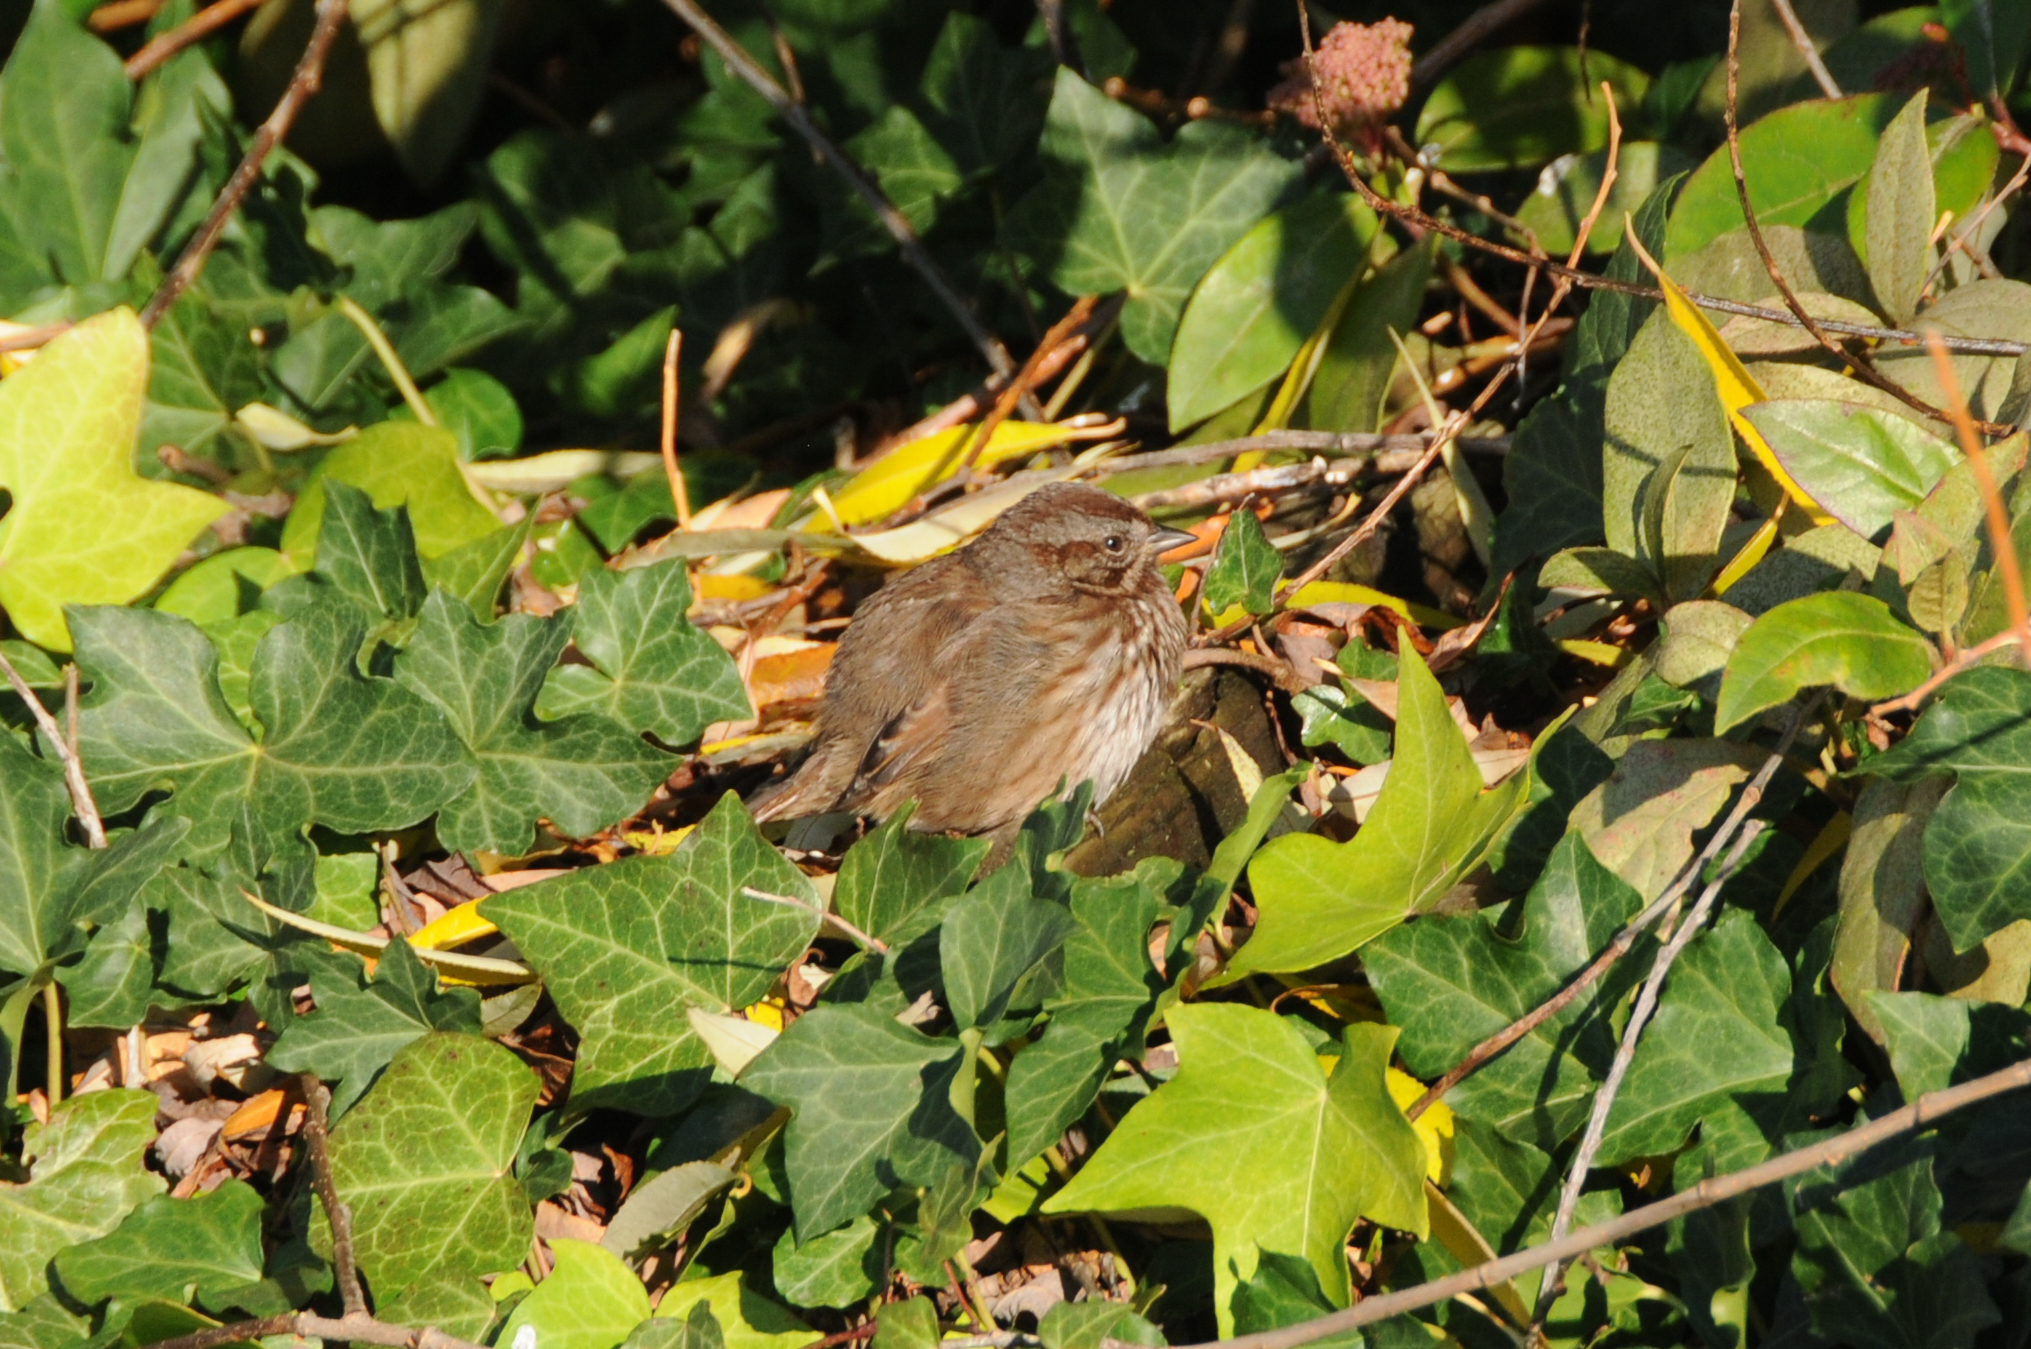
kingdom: Animalia
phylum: Chordata
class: Aves
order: Passeriformes
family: Passerellidae
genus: Melospiza
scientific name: Melospiza melodia
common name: Song sparrow
